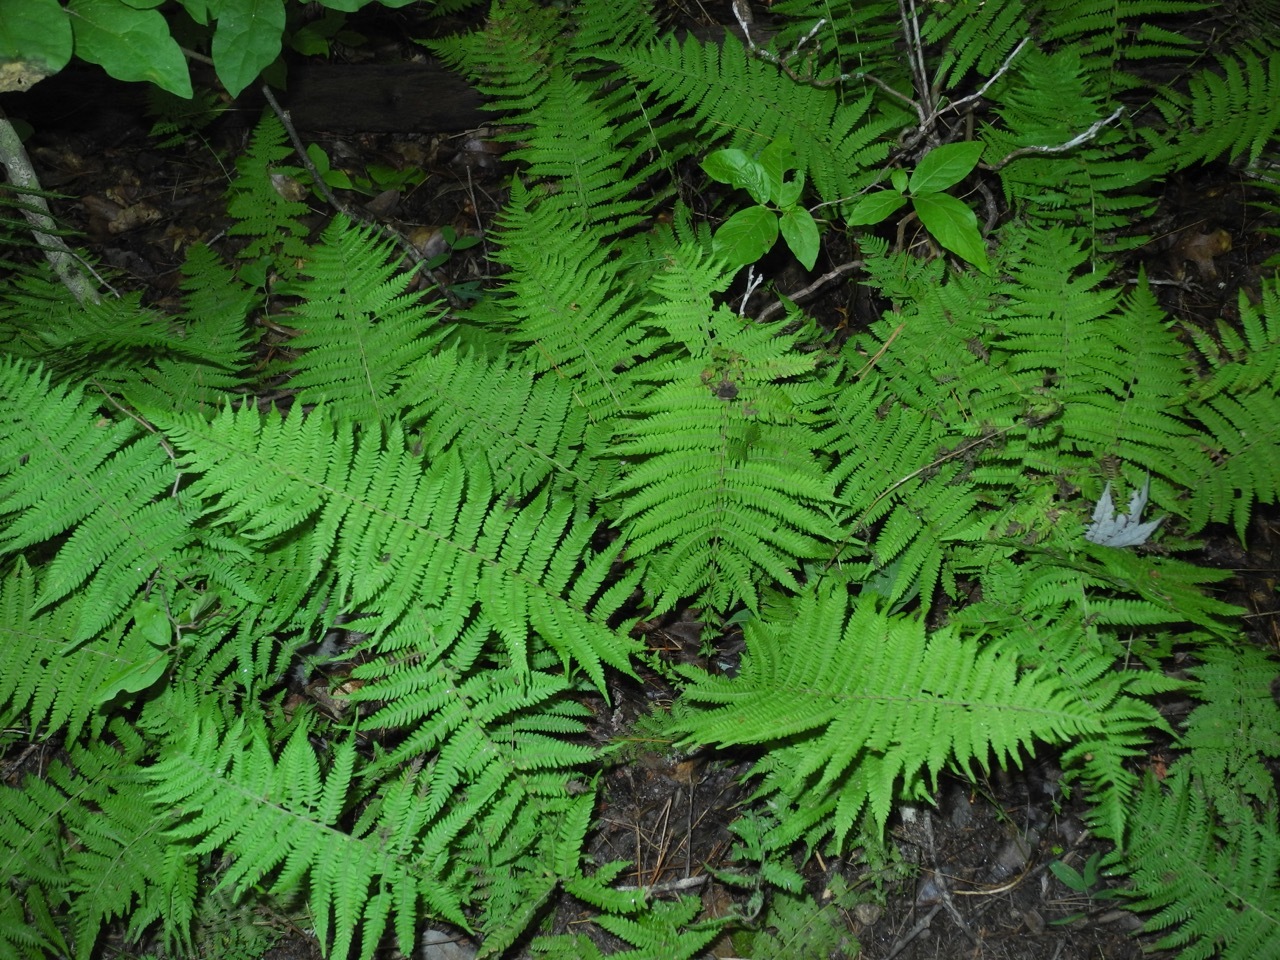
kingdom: Plantae
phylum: Tracheophyta
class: Polypodiopsida
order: Polypodiales
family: Thelypteridaceae
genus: Amauropelta
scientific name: Amauropelta noveboracensis
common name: New york fern
